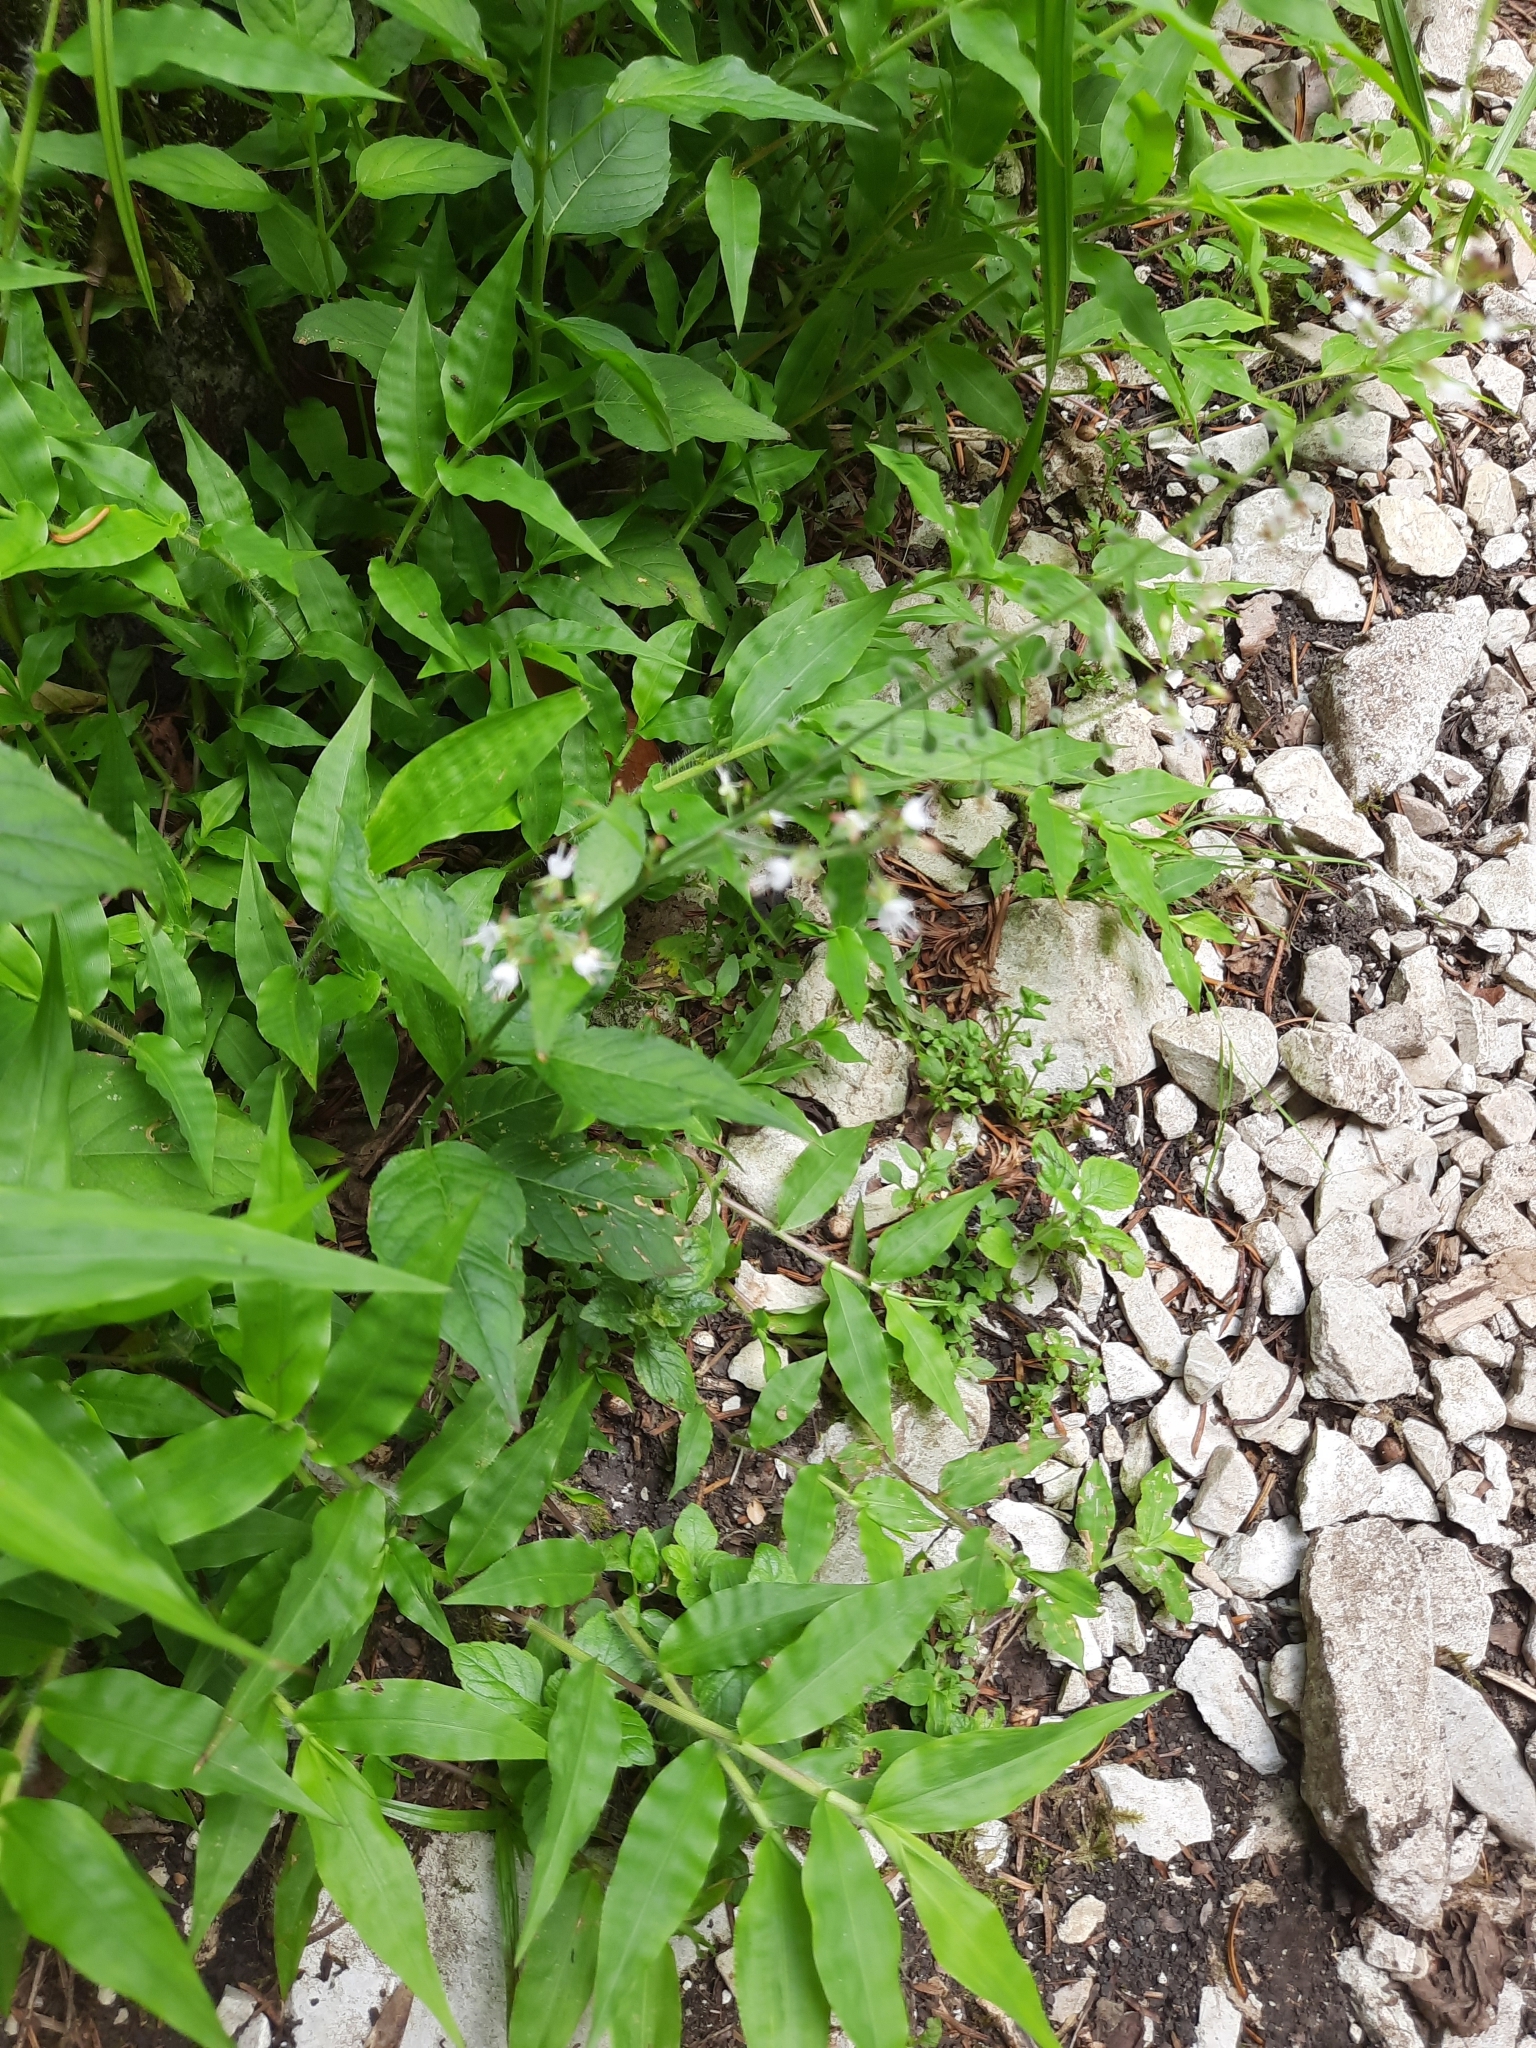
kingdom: Plantae
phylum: Tracheophyta
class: Liliopsida
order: Poales
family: Poaceae
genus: Oplismenus
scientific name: Oplismenus undulatifolius
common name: Wavyleaf basketgrass
